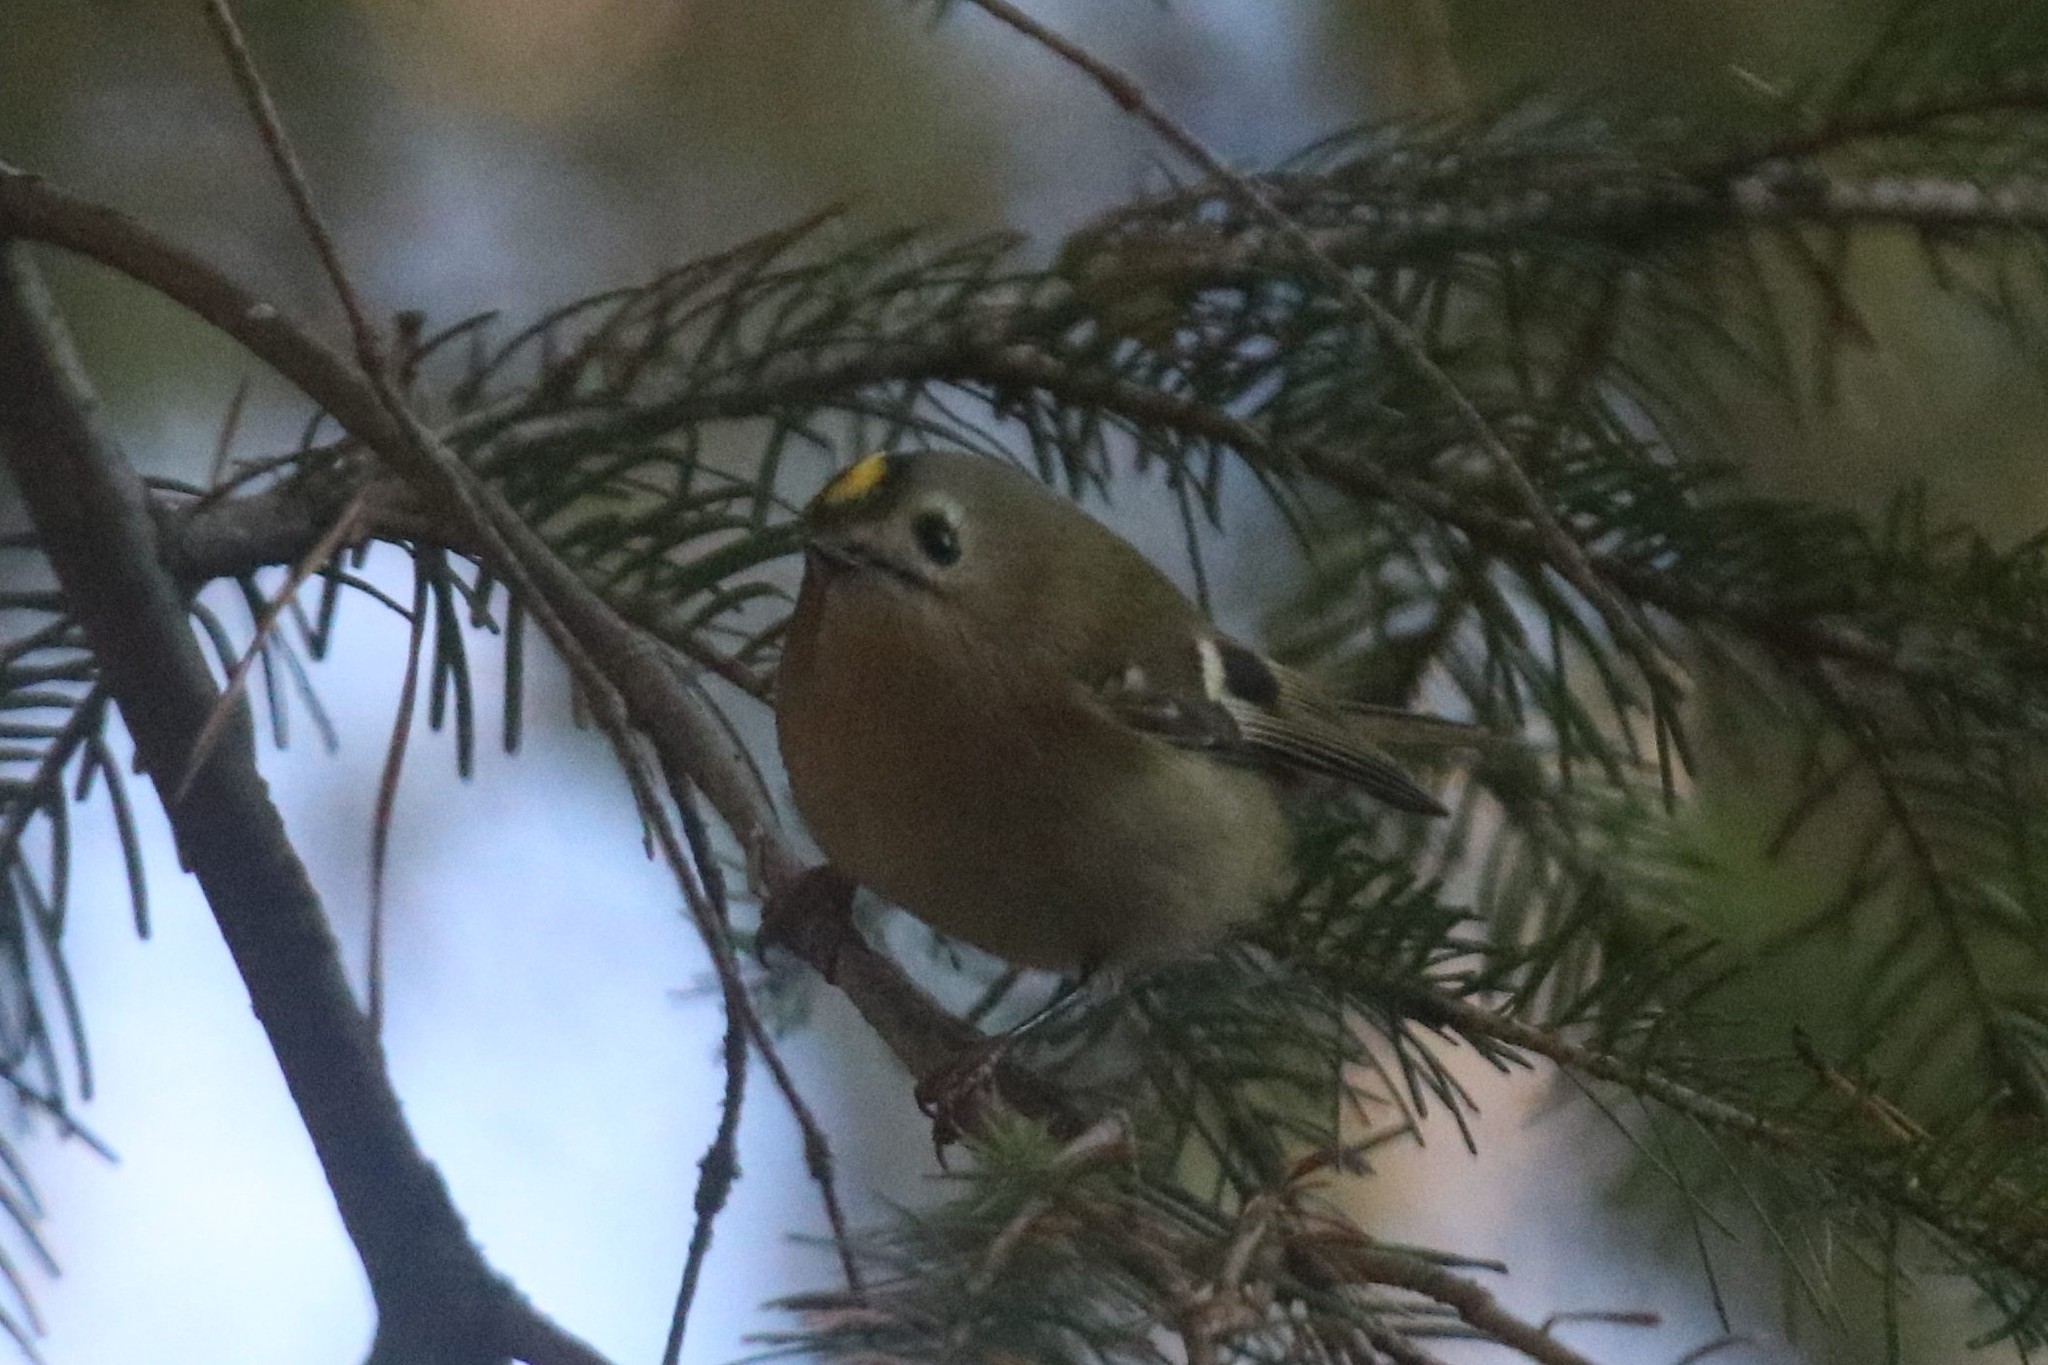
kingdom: Animalia
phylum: Chordata
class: Aves
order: Passeriformes
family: Regulidae
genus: Regulus
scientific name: Regulus regulus
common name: Goldcrest
